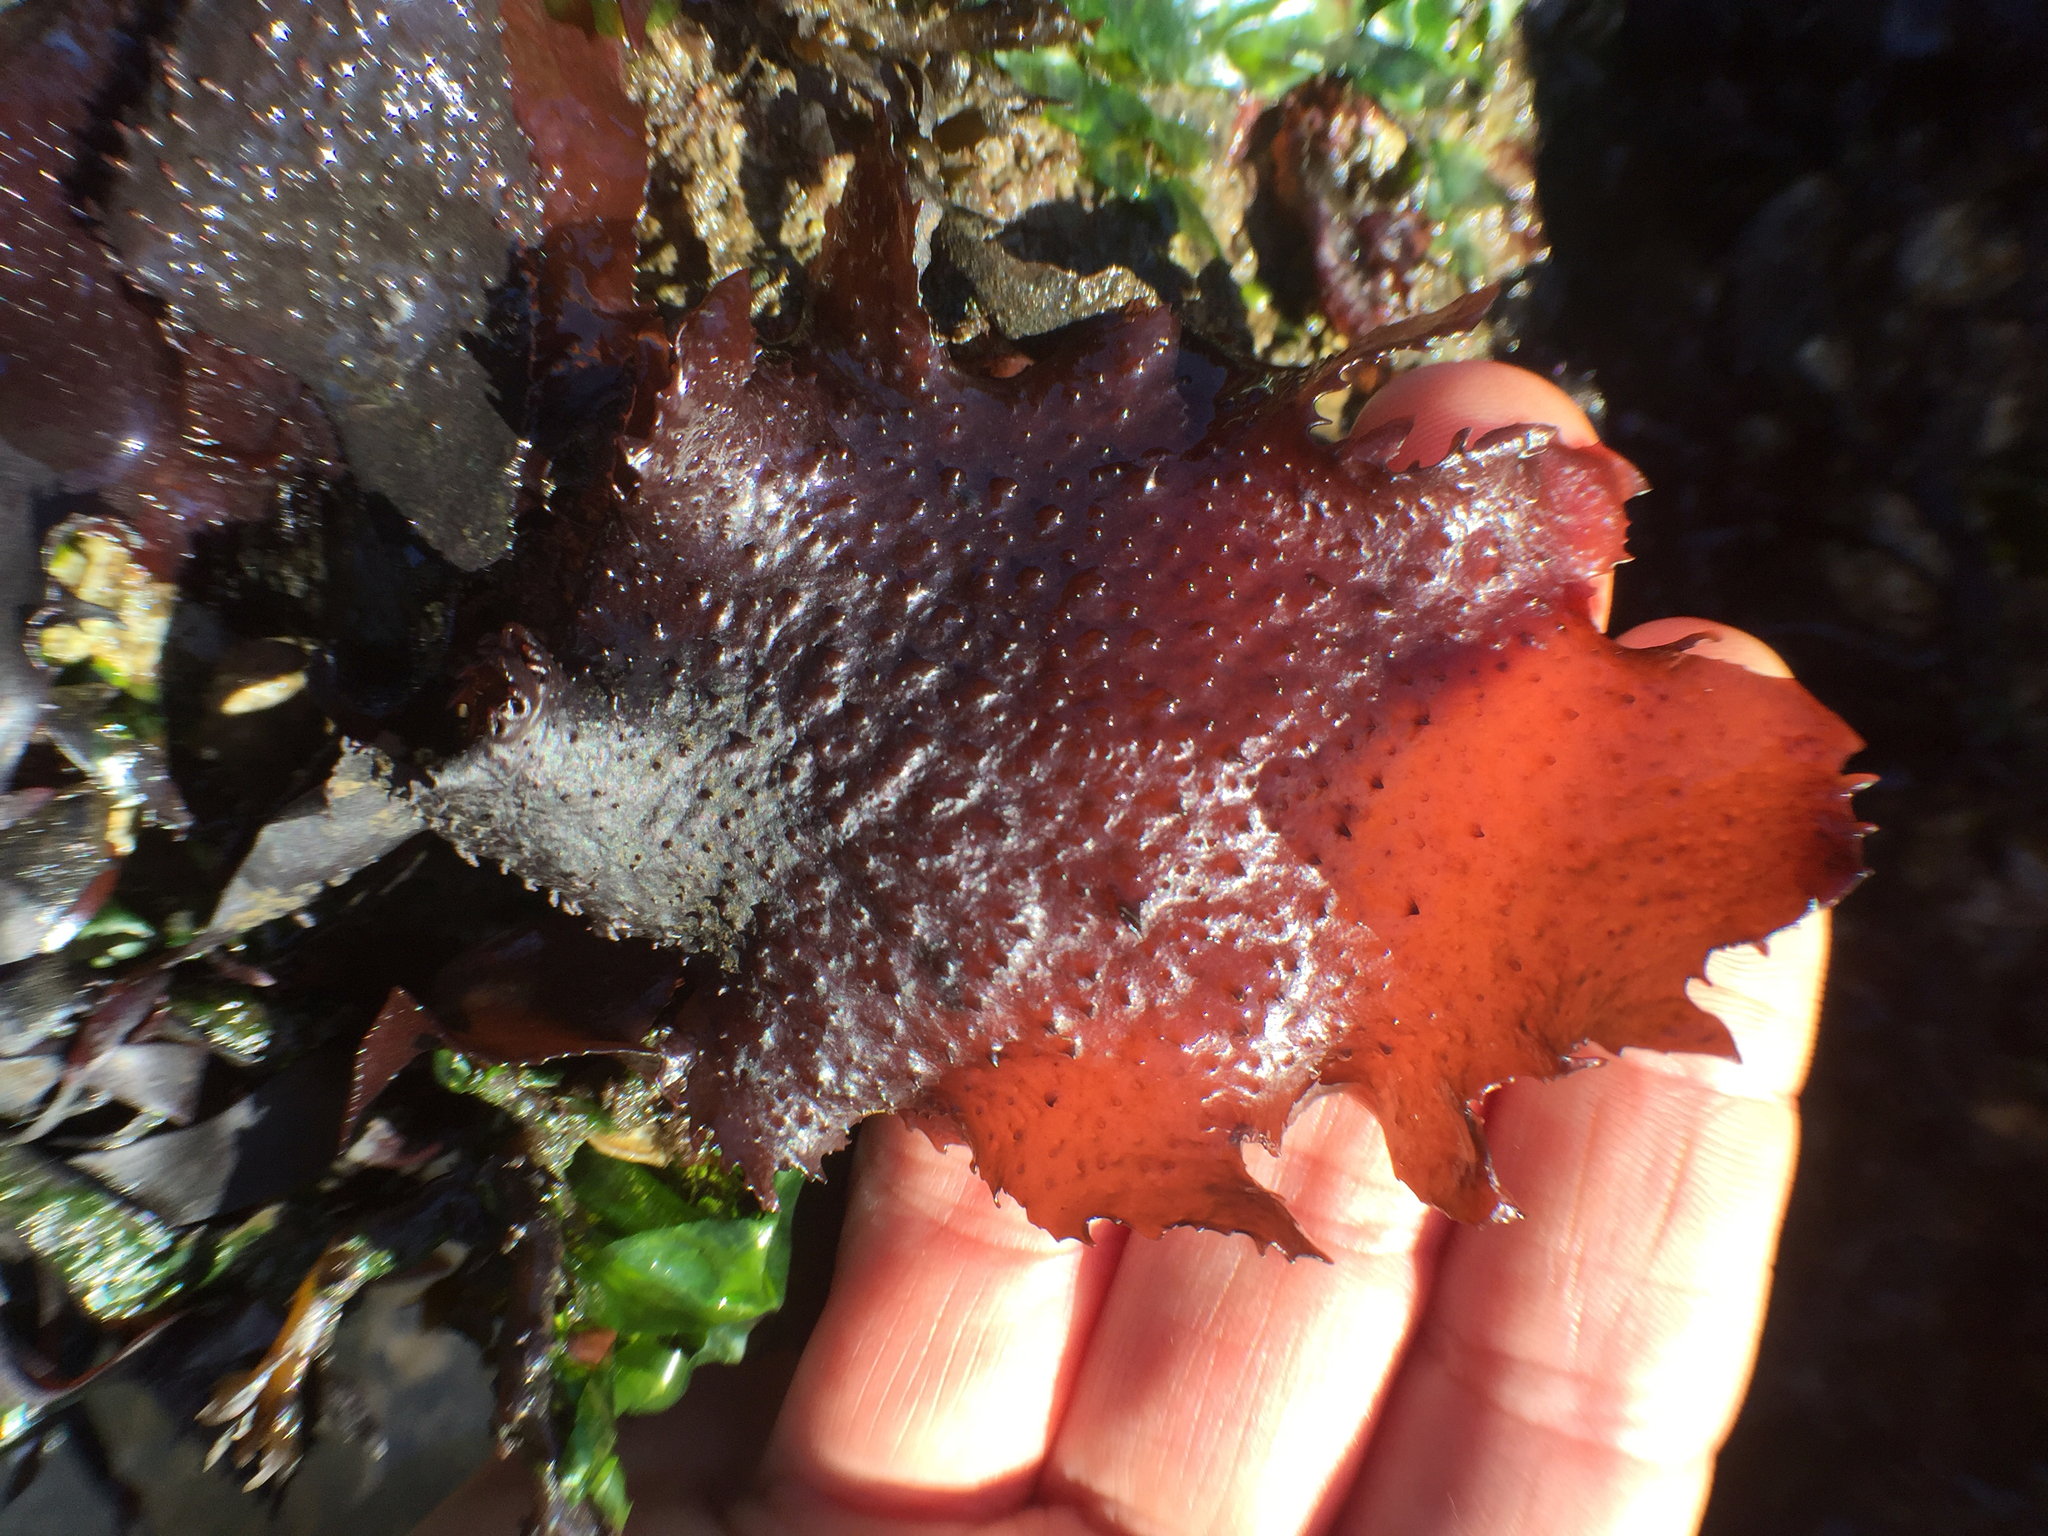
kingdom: Plantae
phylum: Rhodophyta
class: Florideophyceae
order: Gigartinales
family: Phyllophoraceae
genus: Mastocarpus
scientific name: Mastocarpus papillatus
